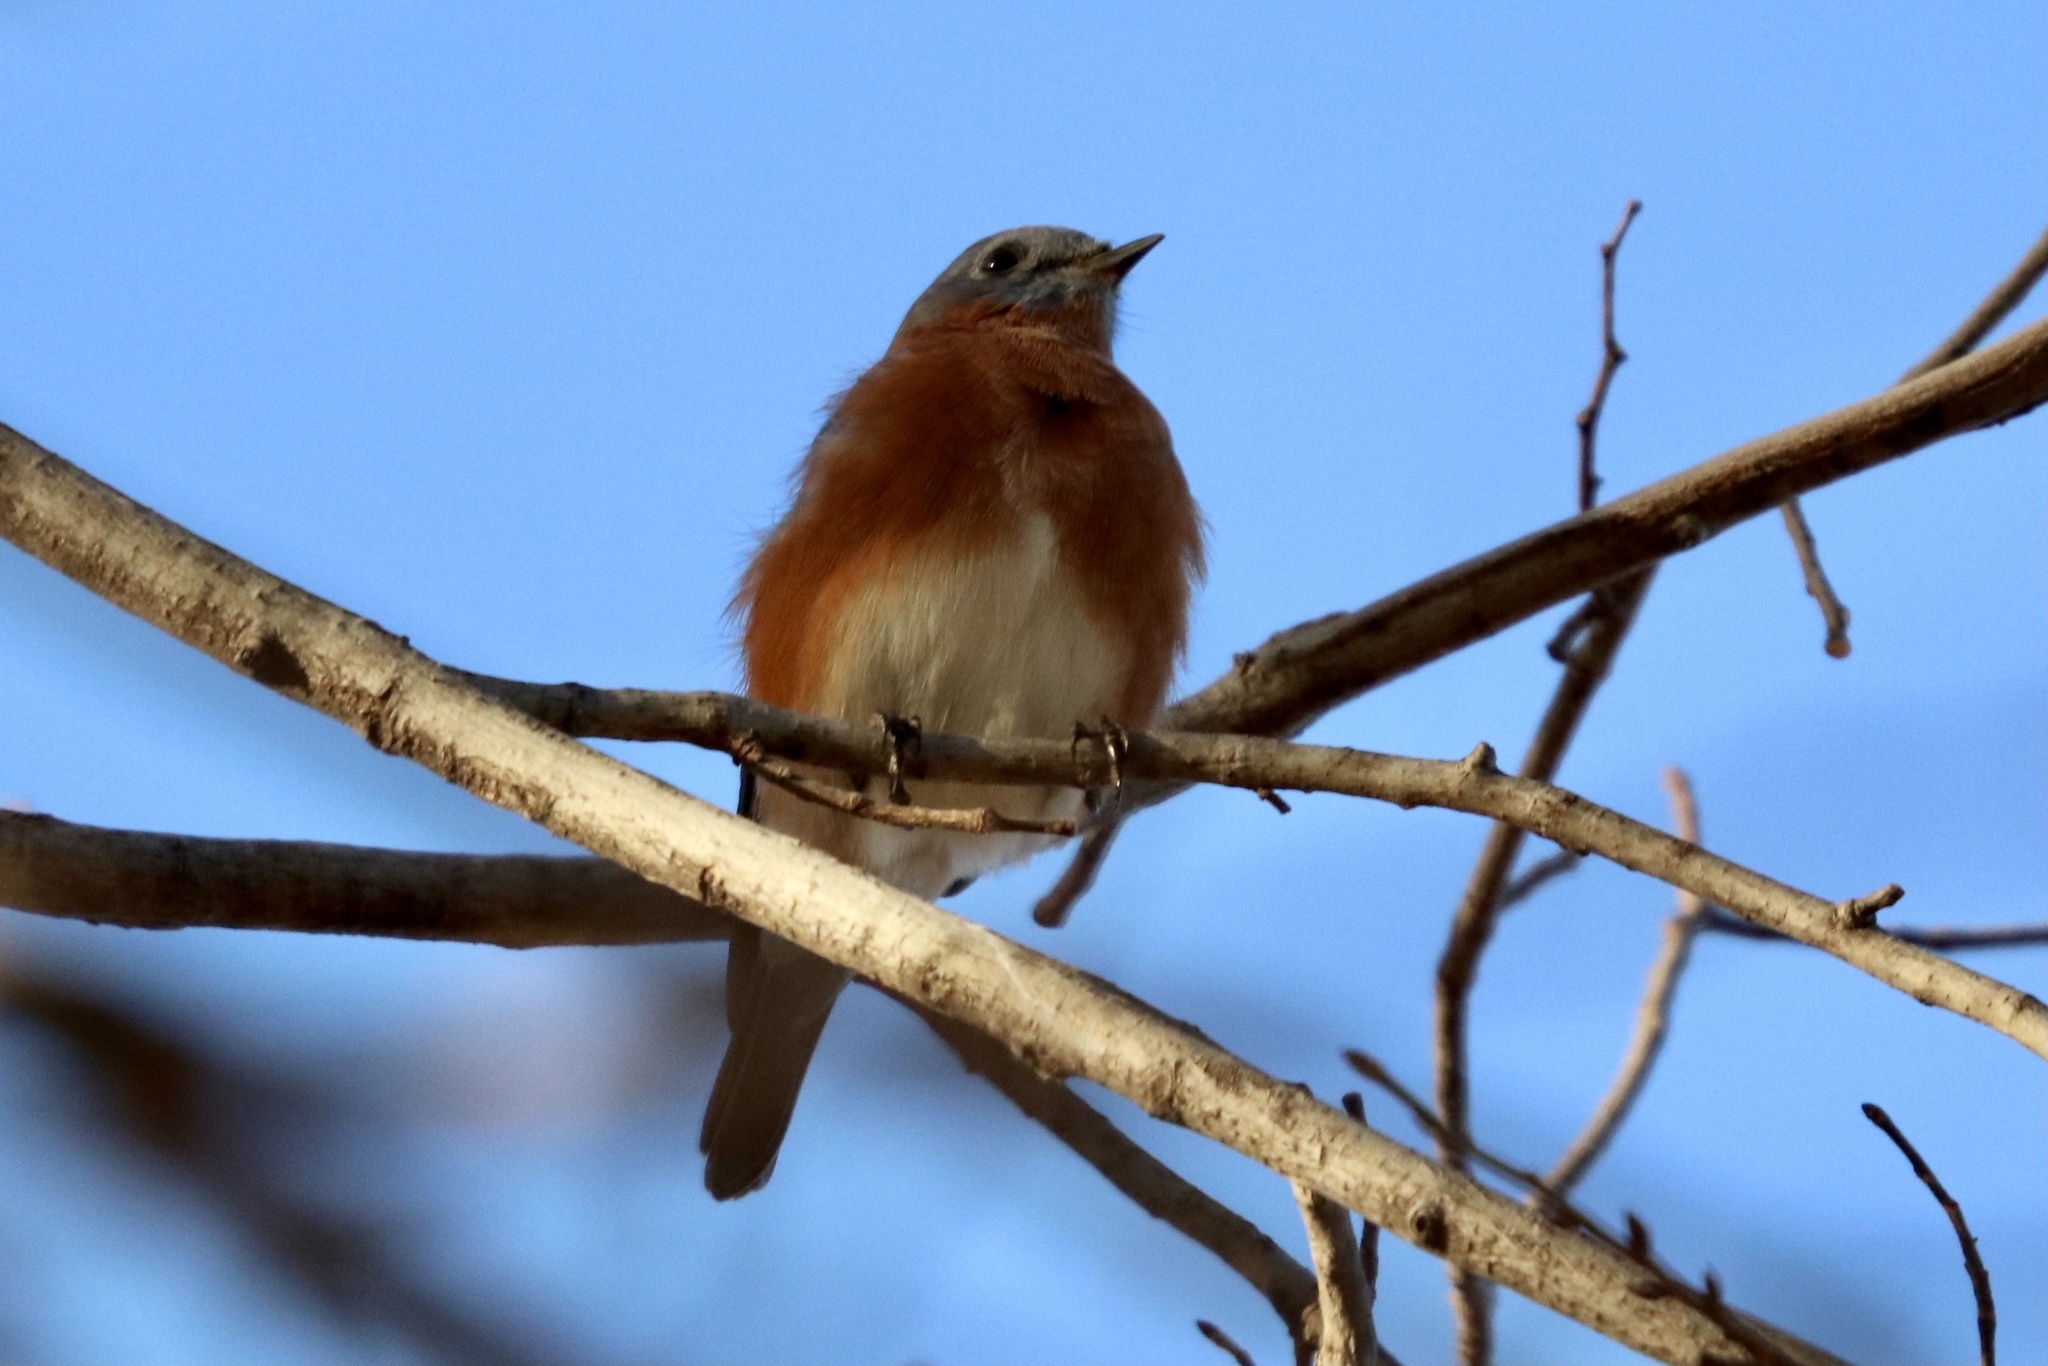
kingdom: Animalia
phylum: Chordata
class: Aves
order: Passeriformes
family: Turdidae
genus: Sialia
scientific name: Sialia sialis
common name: Eastern bluebird
